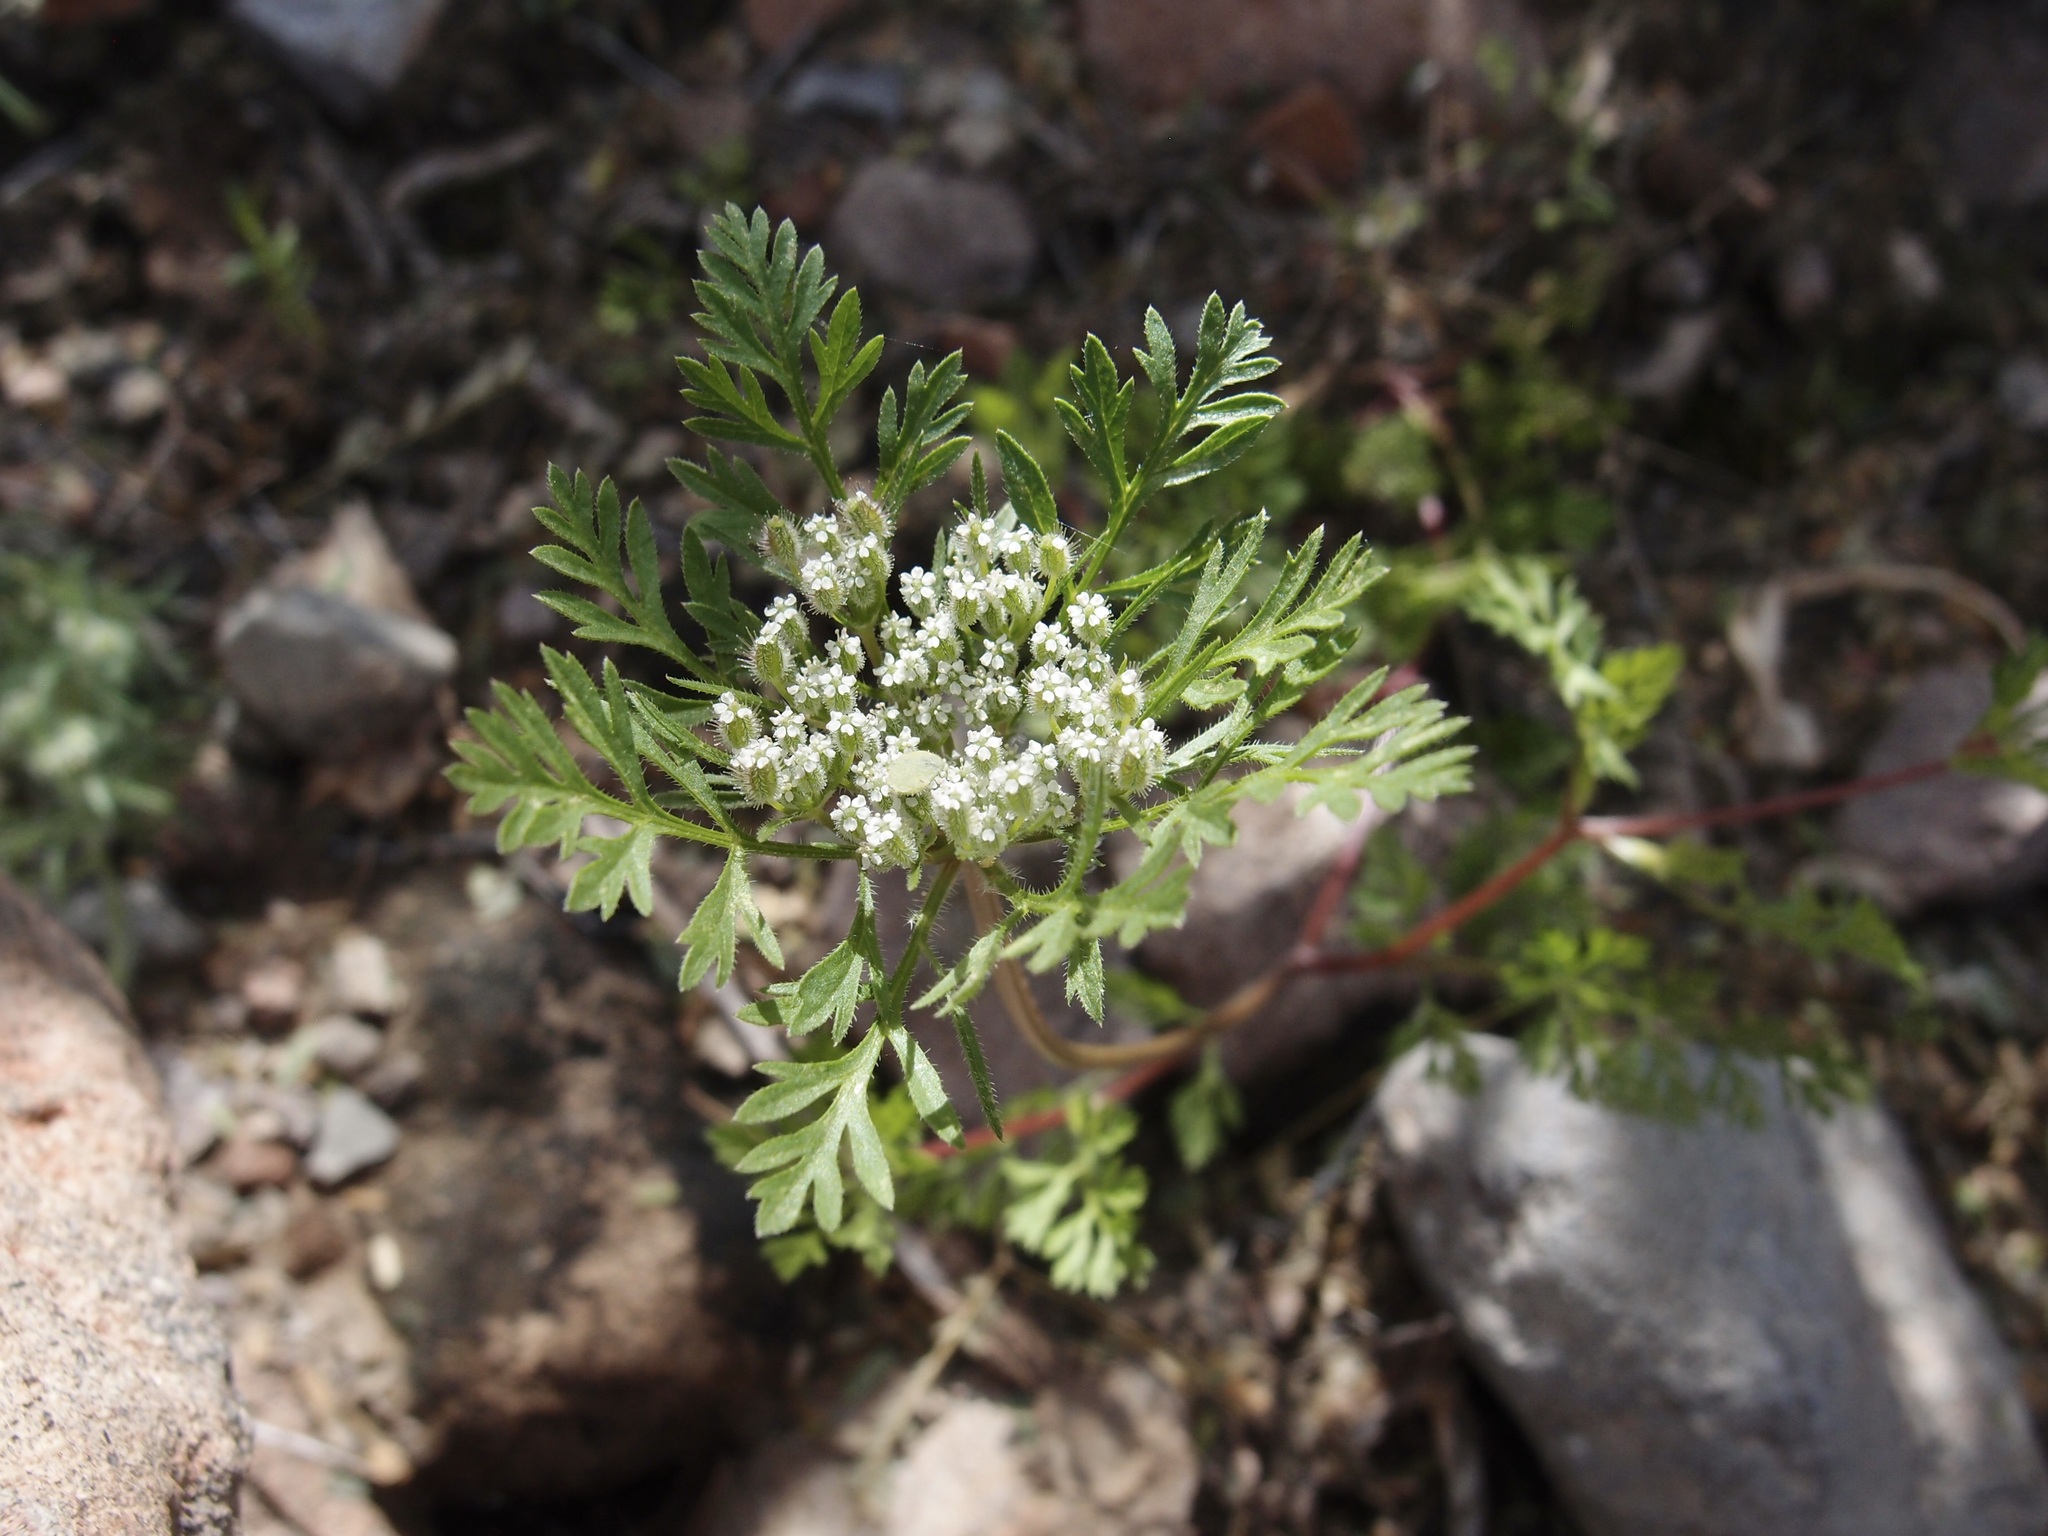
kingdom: Plantae
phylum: Tracheophyta
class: Magnoliopsida
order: Apiales
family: Apiaceae
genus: Daucus
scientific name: Daucus pusillus
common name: Southwest wild carrot
